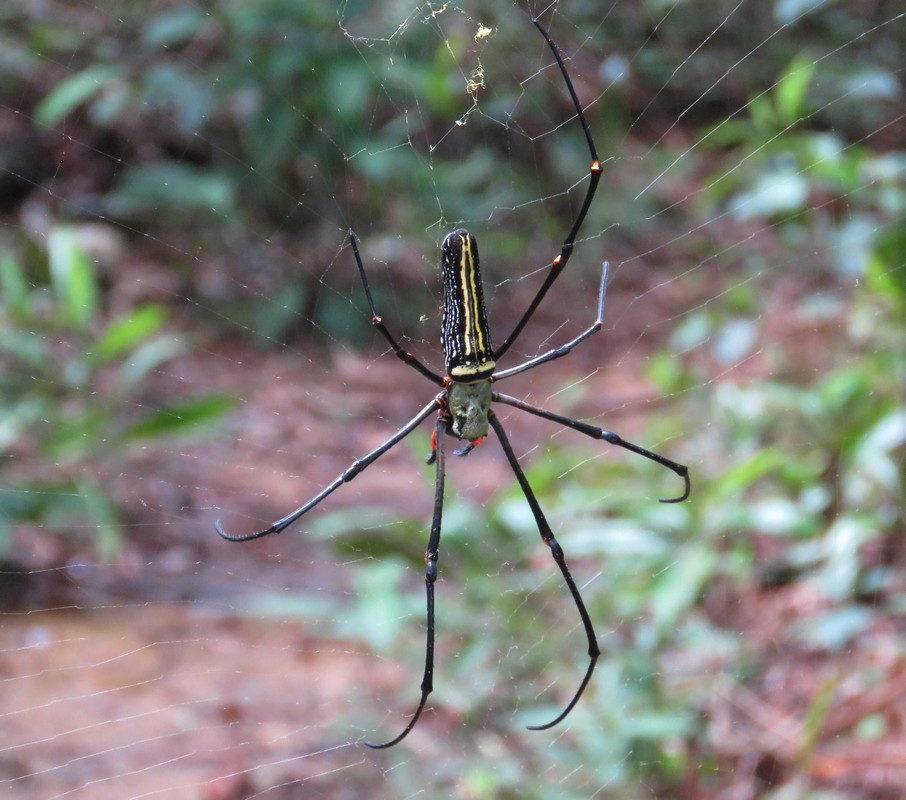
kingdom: Animalia
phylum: Arthropoda
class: Arachnida
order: Araneae
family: Araneidae
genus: Nephila
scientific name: Nephila pilipes
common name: Giant golden orb weaver
